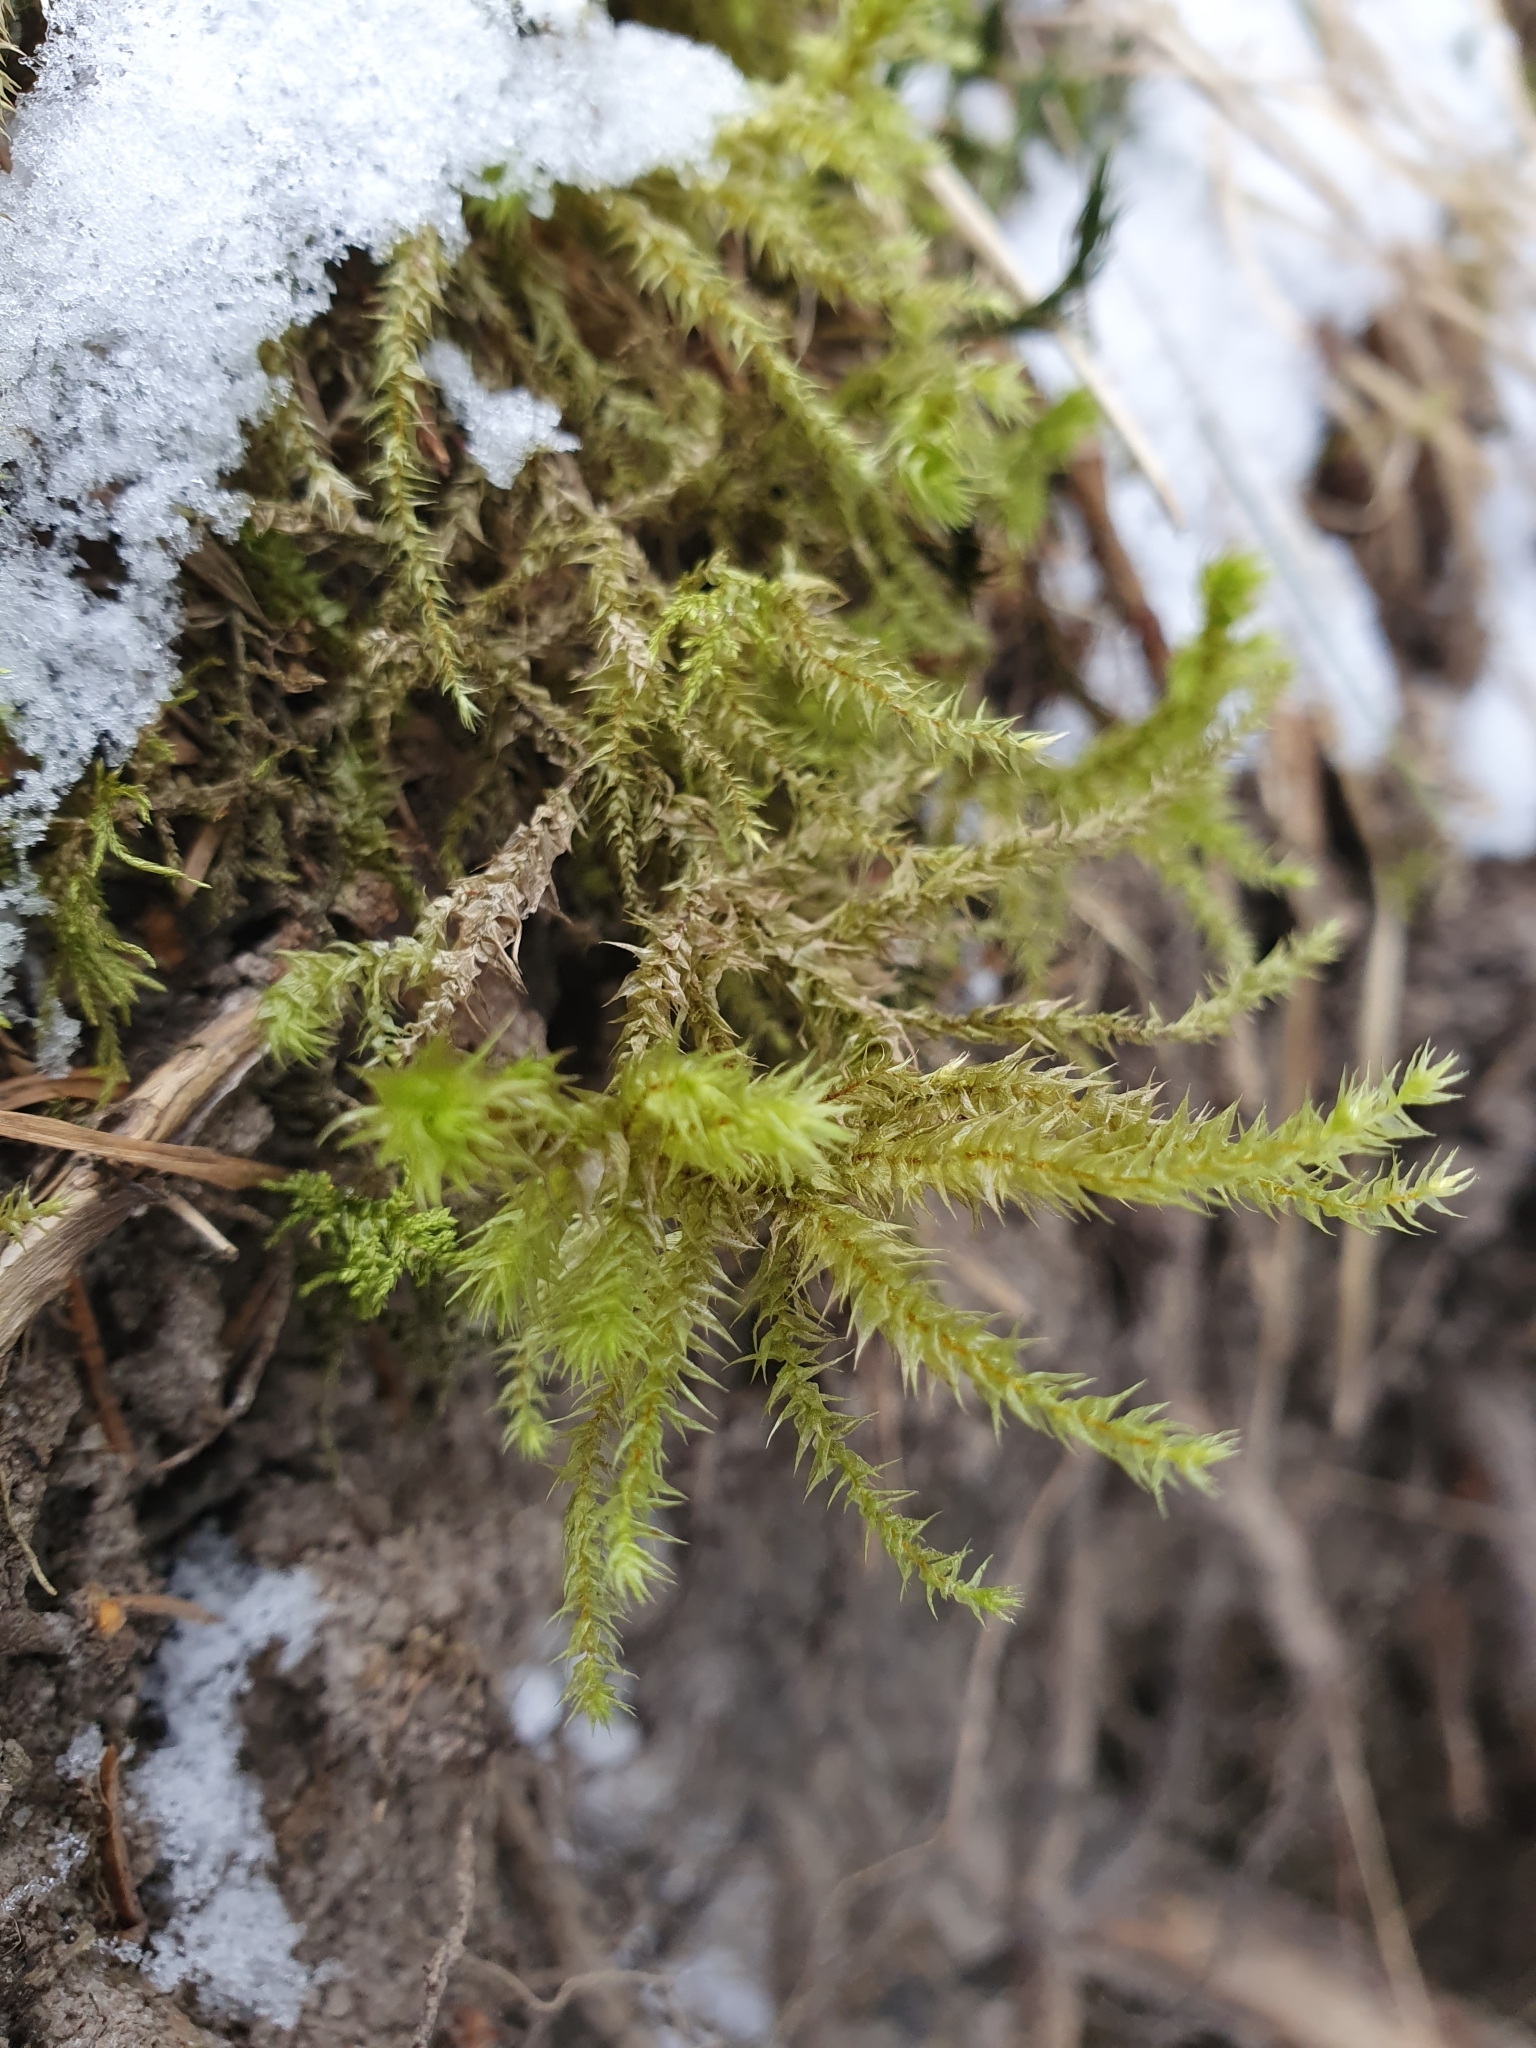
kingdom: Plantae
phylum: Bryophyta
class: Bryopsida
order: Hypnales
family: Hylocomiaceae
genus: Hylocomiadelphus
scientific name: Hylocomiadelphus triquetrus
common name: Rough goose neck moss
